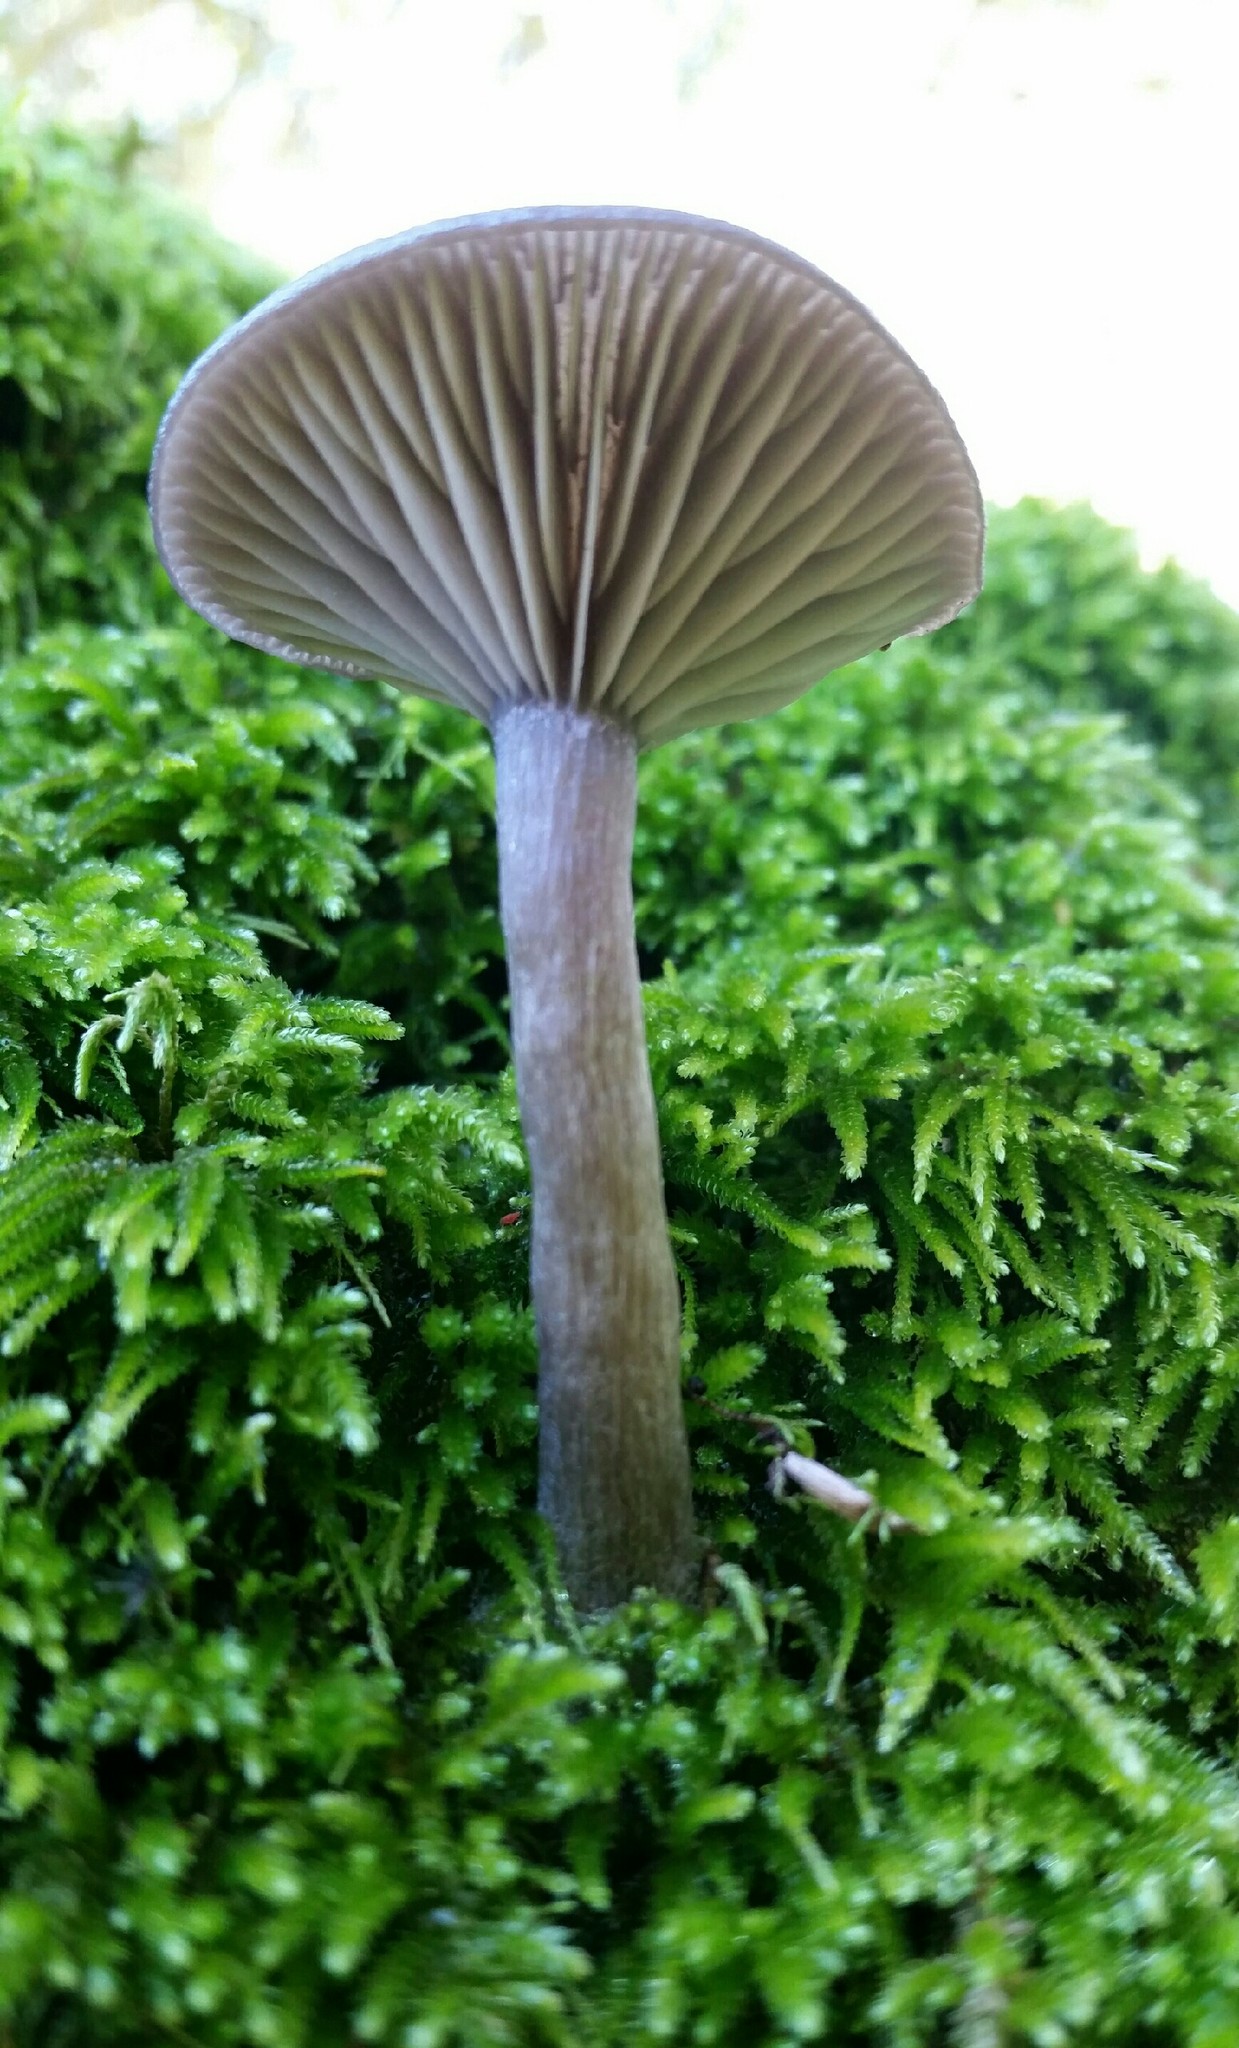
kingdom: Fungi
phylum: Basidiomycota
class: Agaricomycetes
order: Agaricales
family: Pseudoclitocybaceae
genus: Pseudoclitocybe
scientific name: Pseudoclitocybe cyathiformis
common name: Goblet
